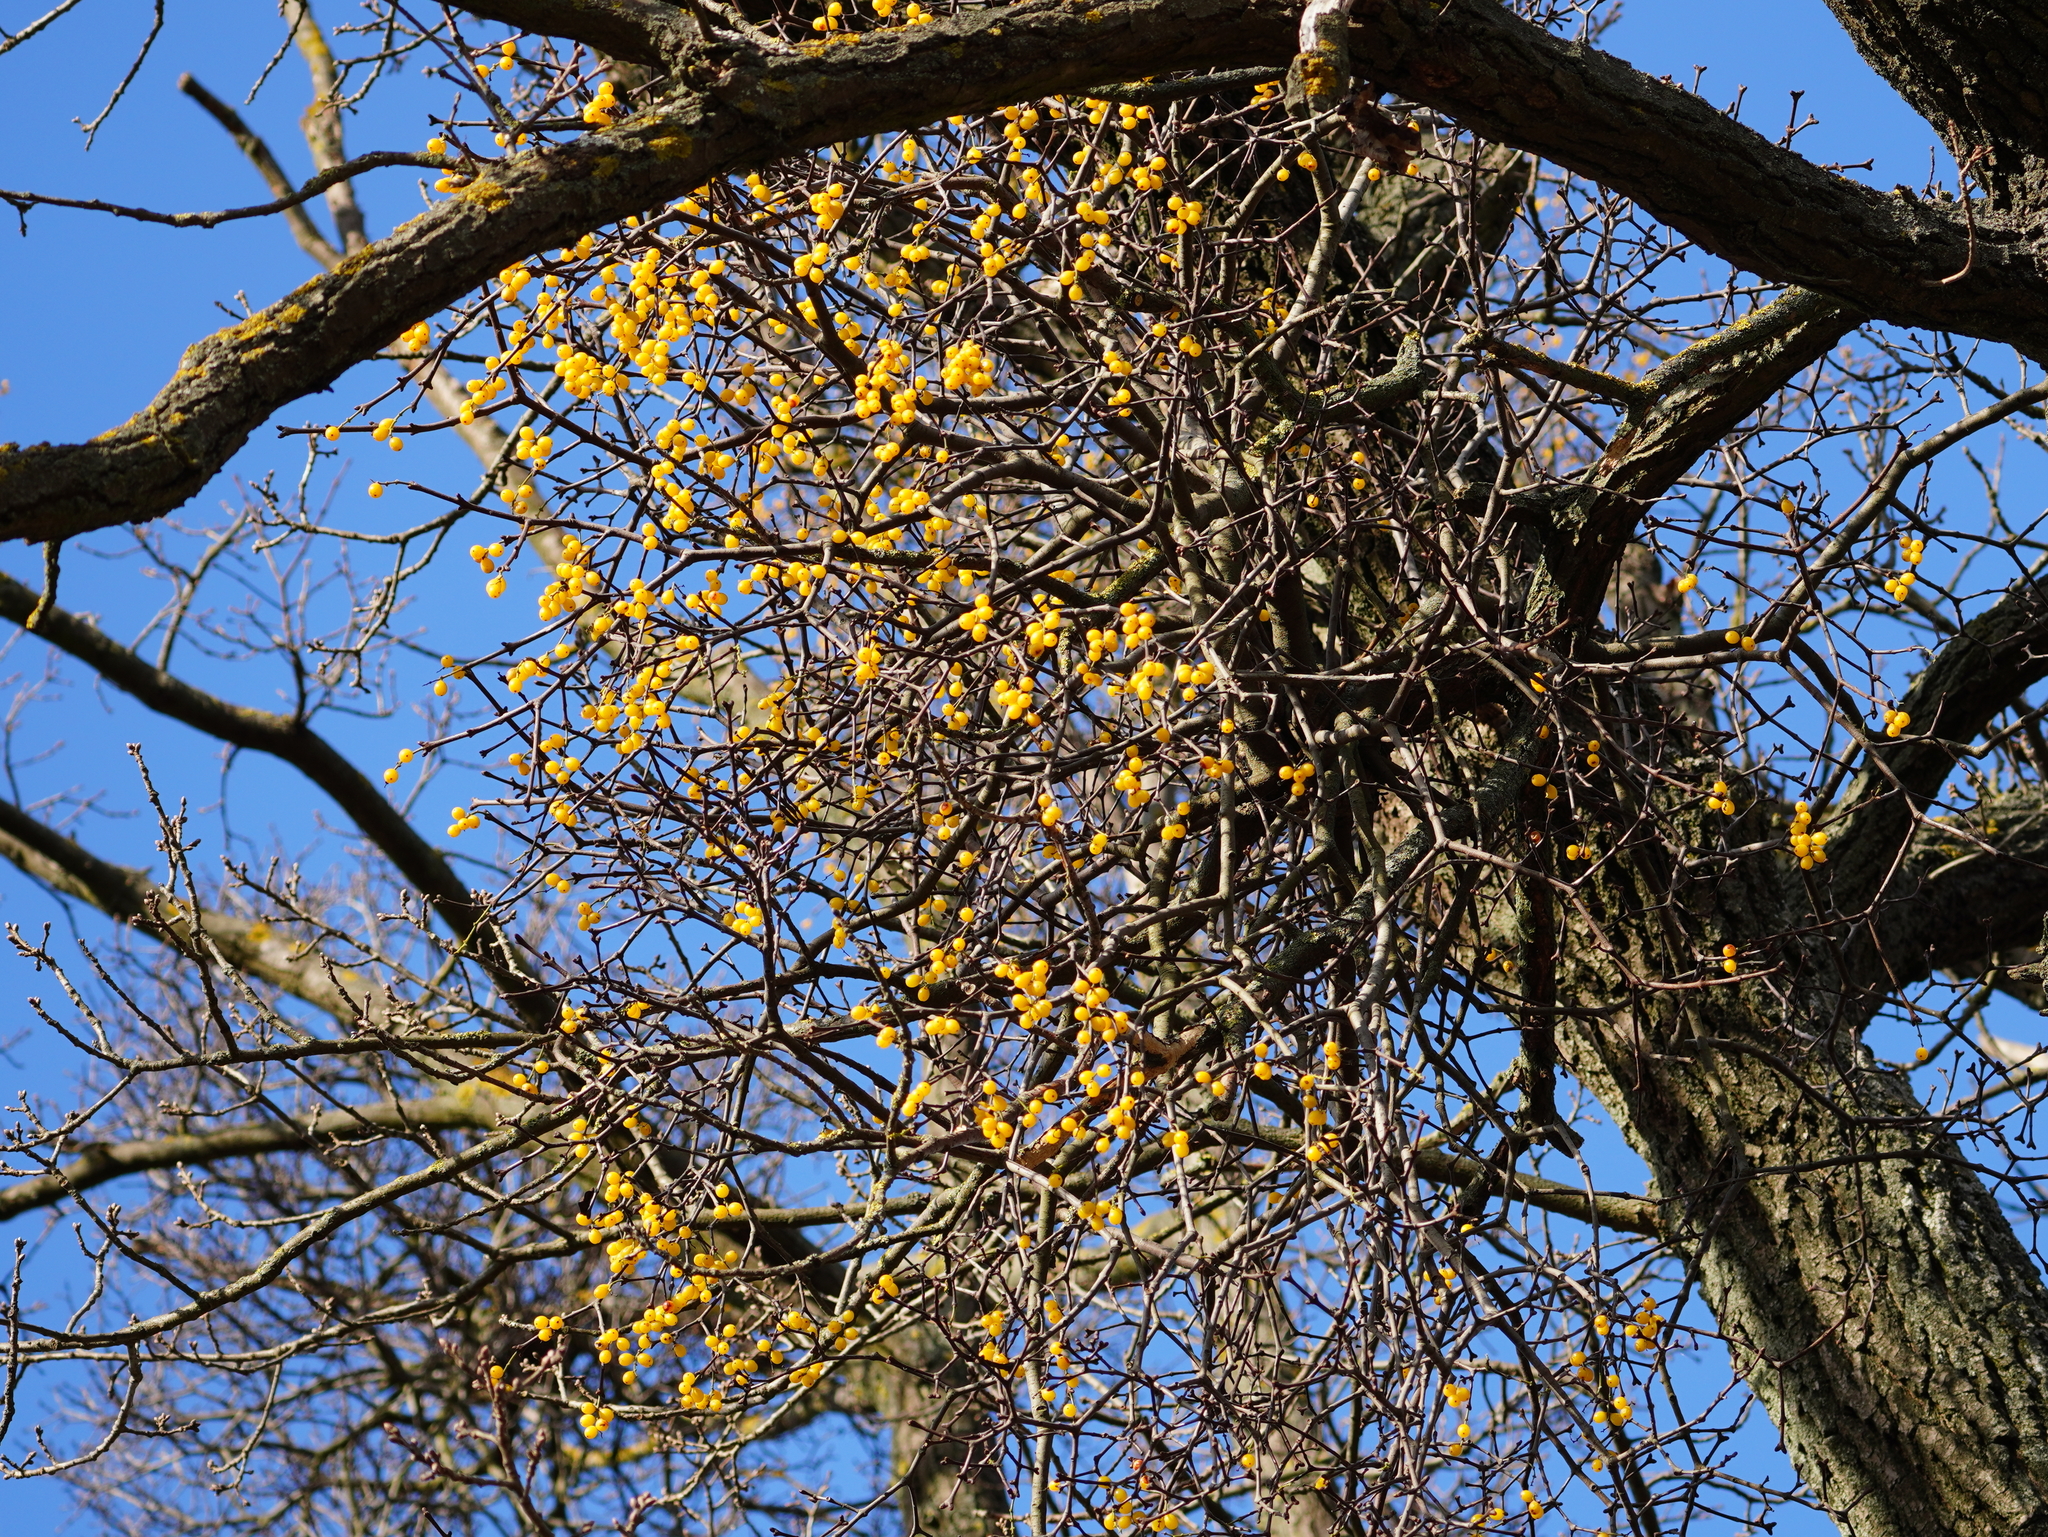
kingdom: Plantae
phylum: Tracheophyta
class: Magnoliopsida
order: Santalales
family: Loranthaceae
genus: Loranthus
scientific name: Loranthus europaeus
